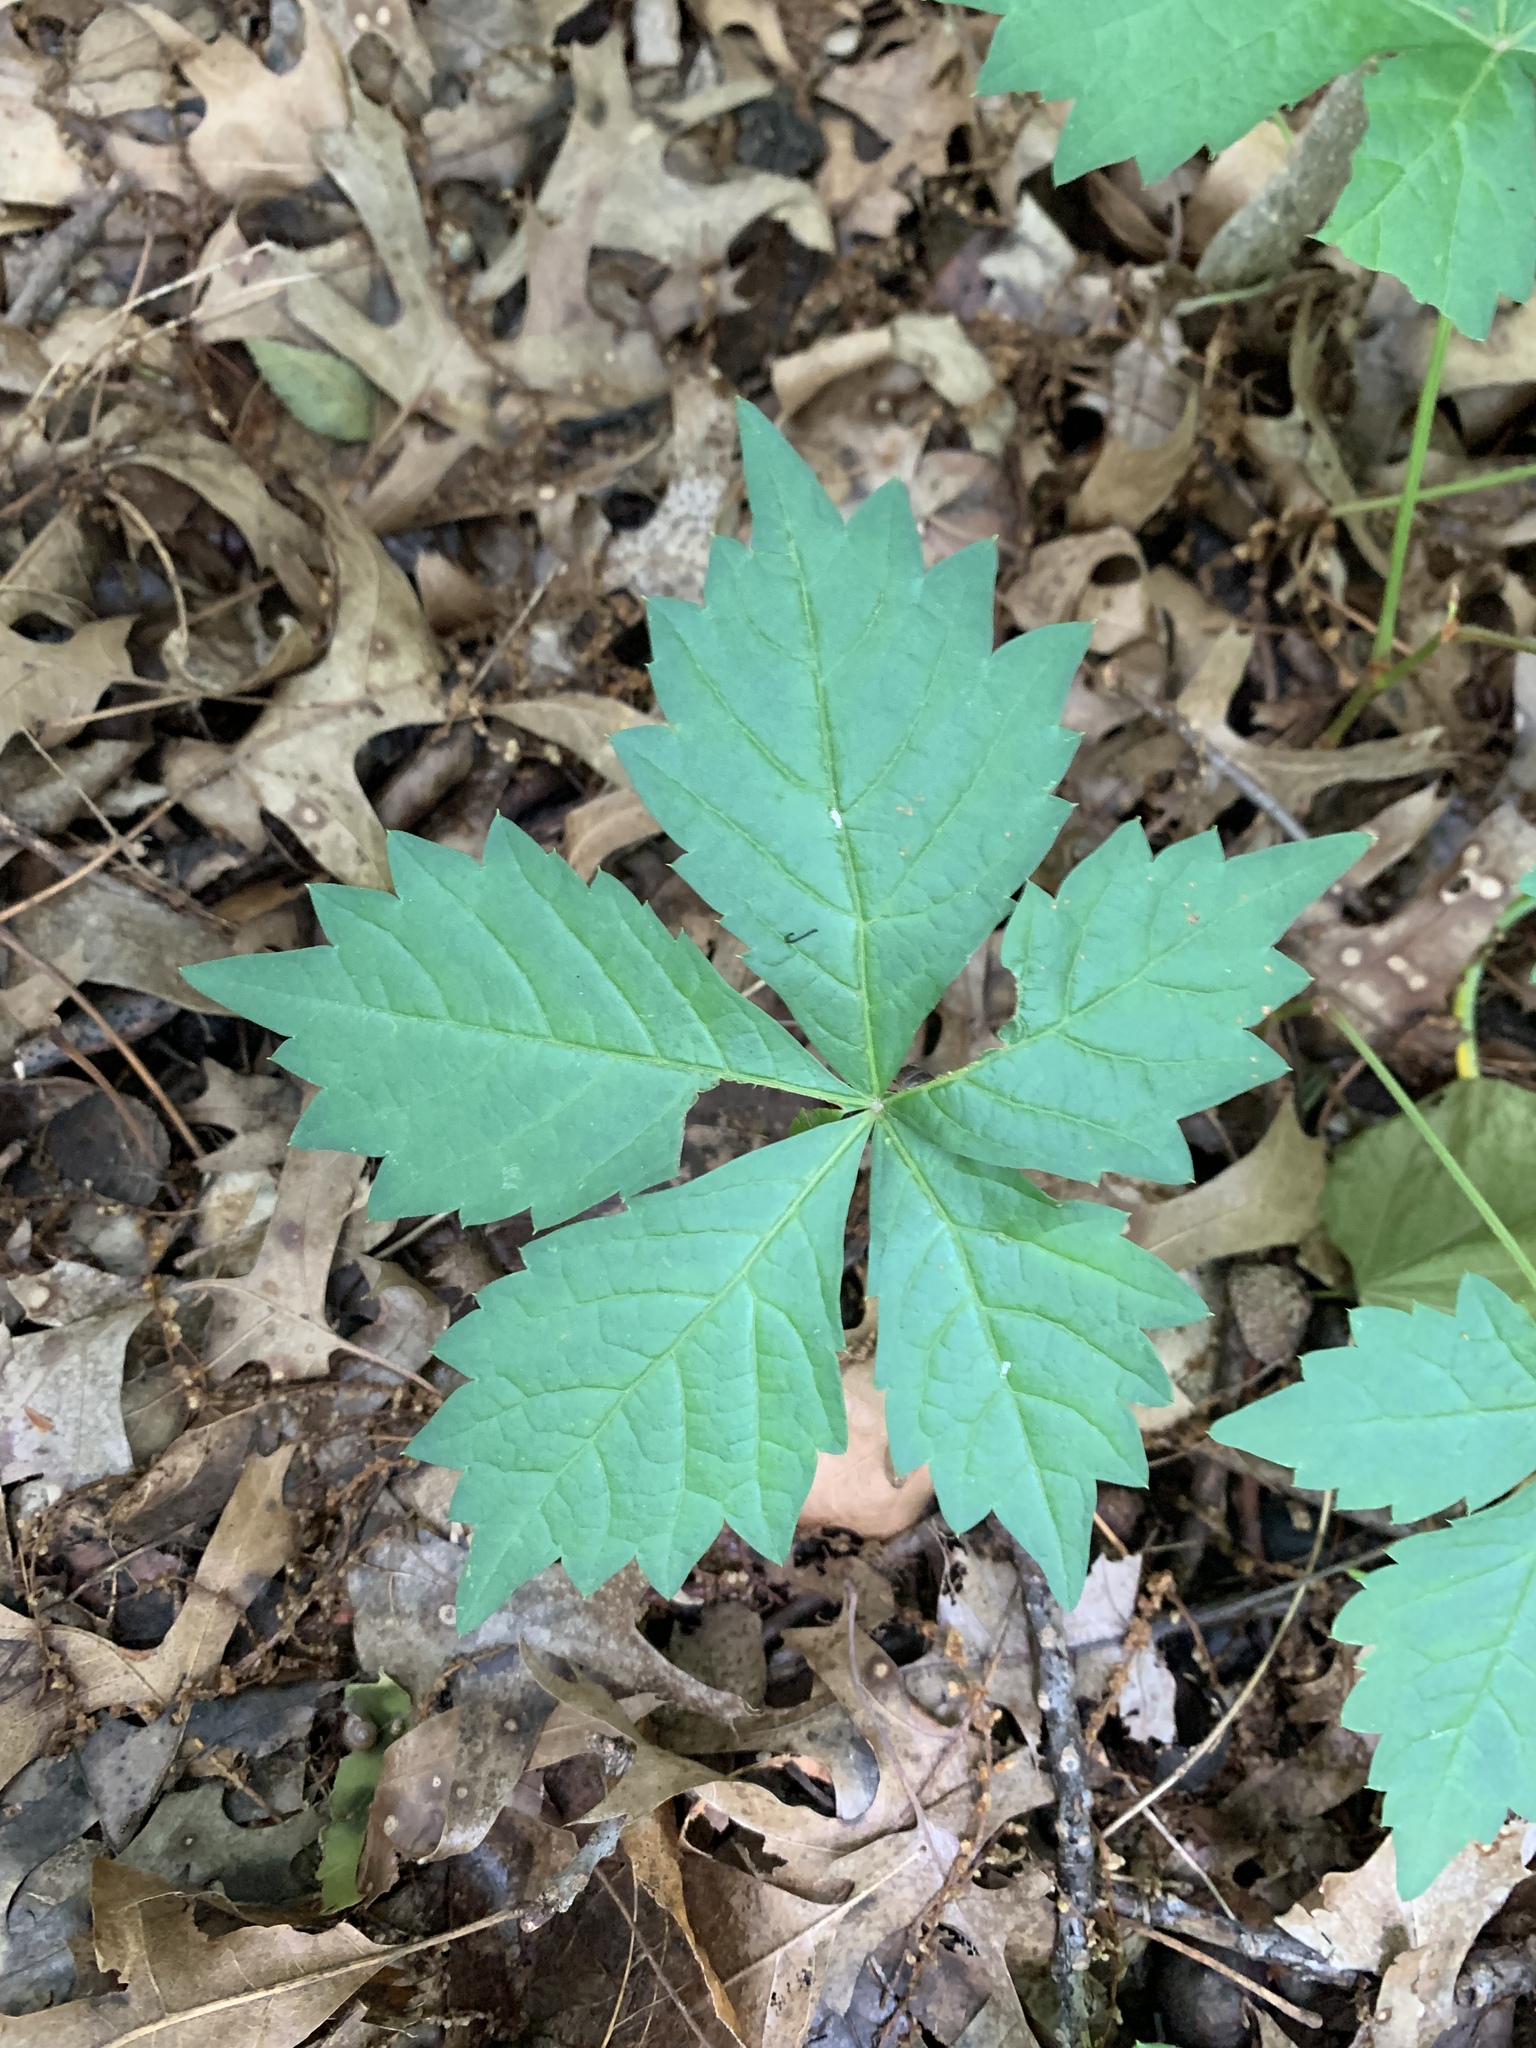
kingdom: Plantae
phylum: Tracheophyta
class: Magnoliopsida
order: Vitales
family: Vitaceae
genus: Parthenocissus
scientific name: Parthenocissus quinquefolia
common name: Virginia-creeper
